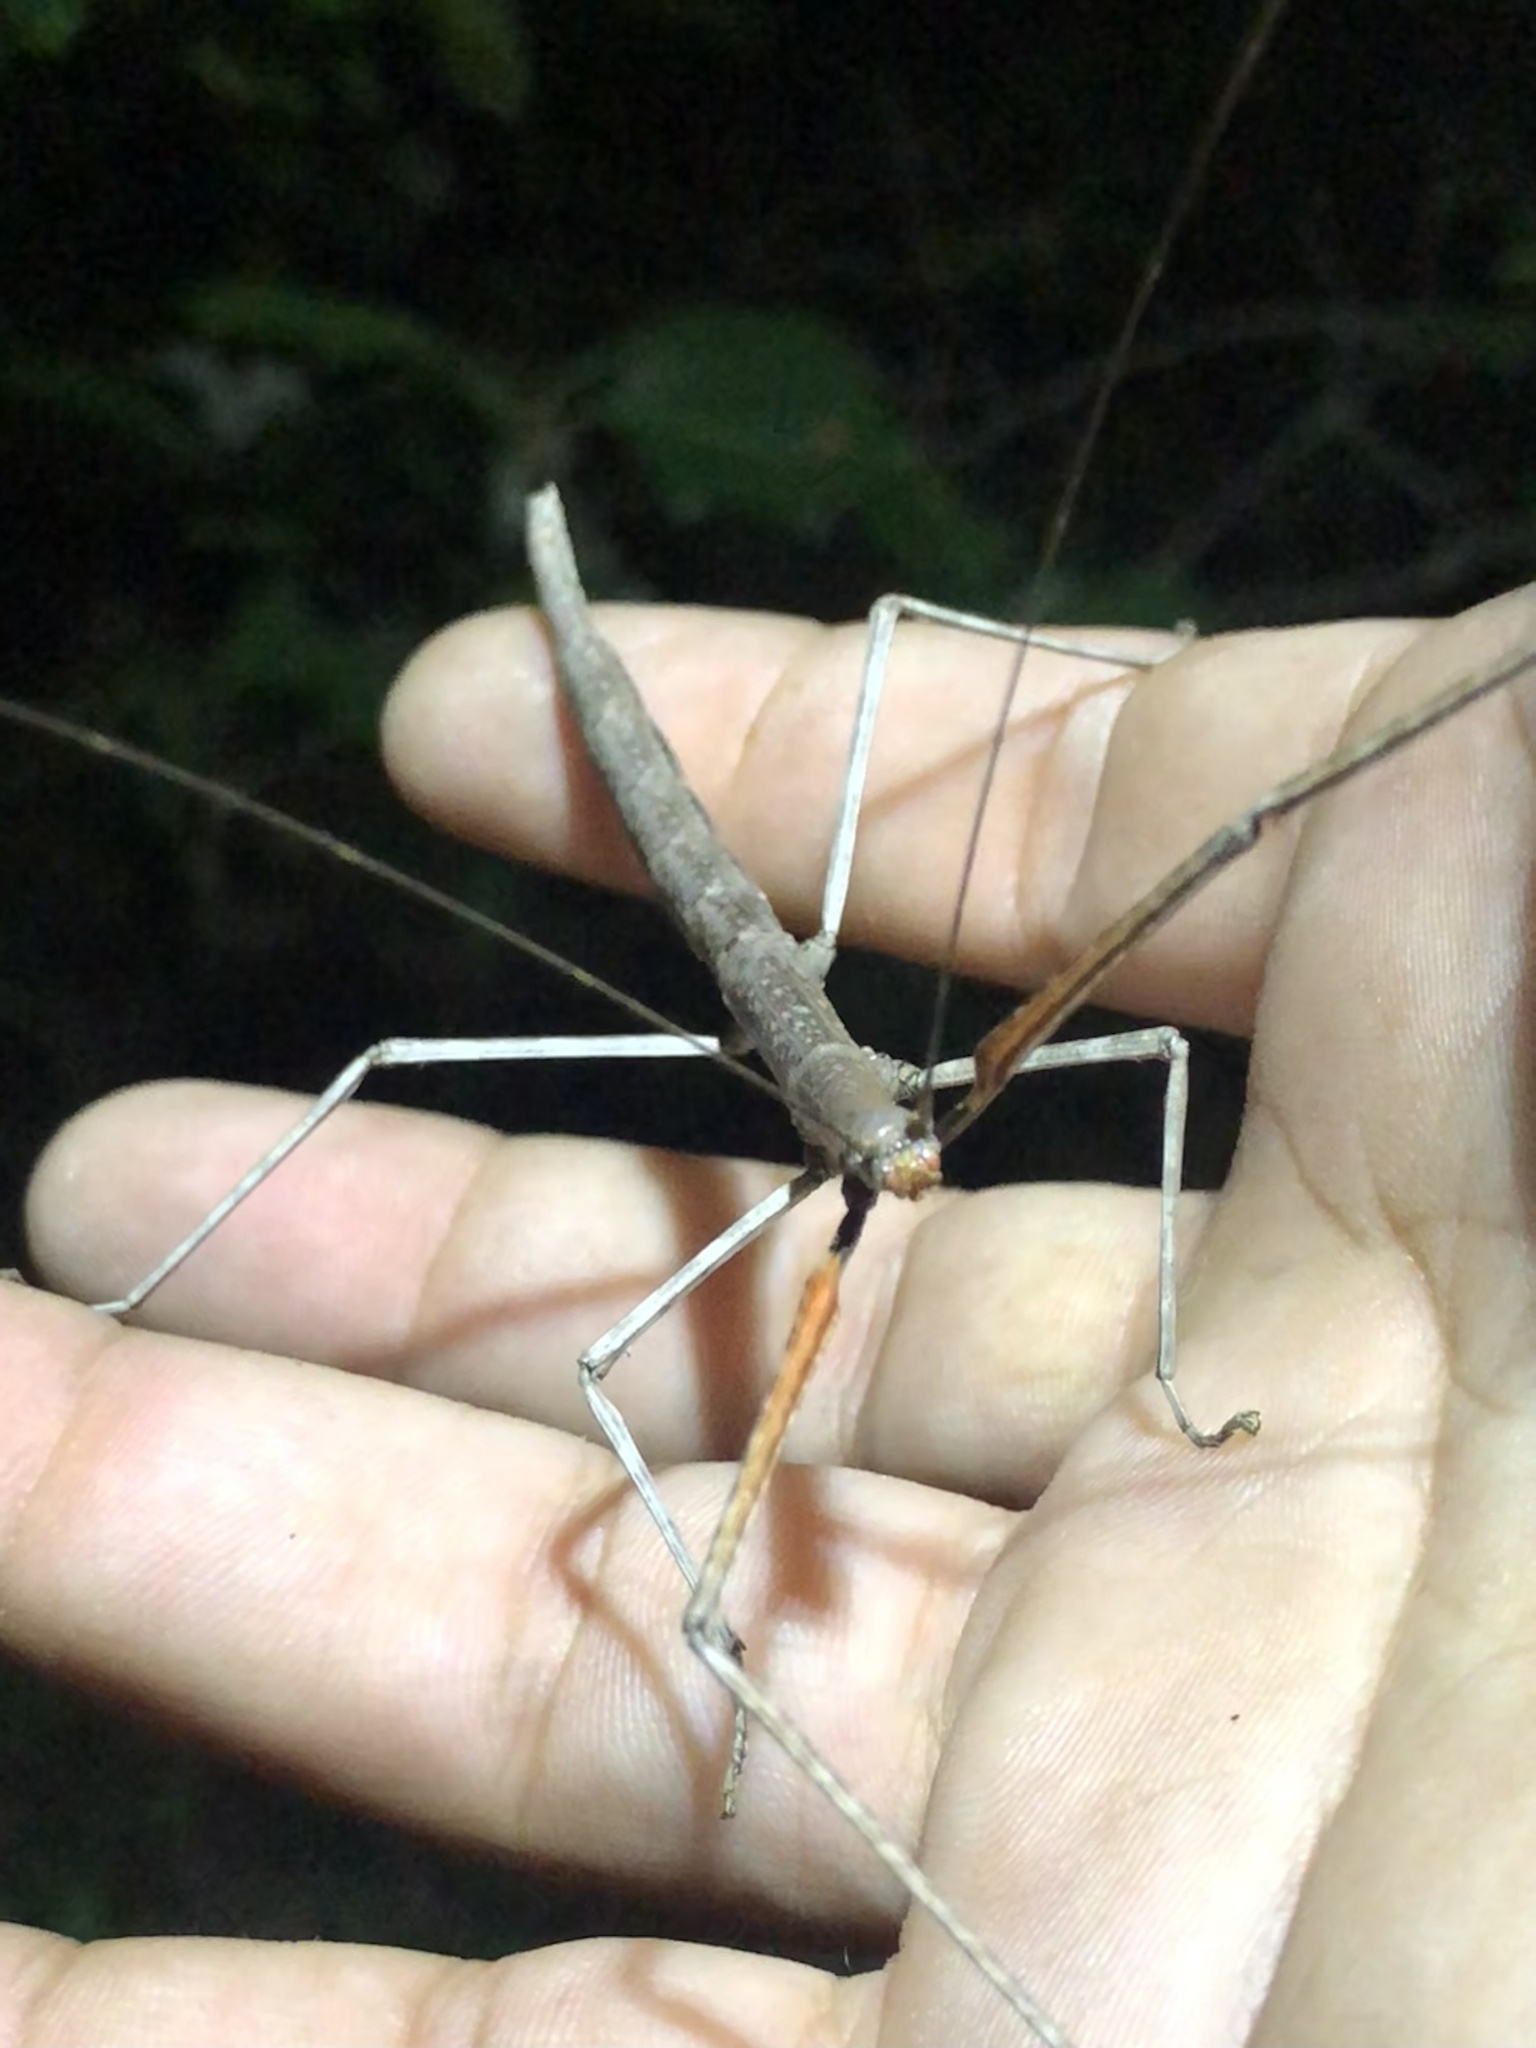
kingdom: Animalia
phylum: Arthropoda
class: Insecta
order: Phasmida
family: Diapheromeridae
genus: Diapheromera
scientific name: Diapheromera femorata
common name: Common american walkingstick
